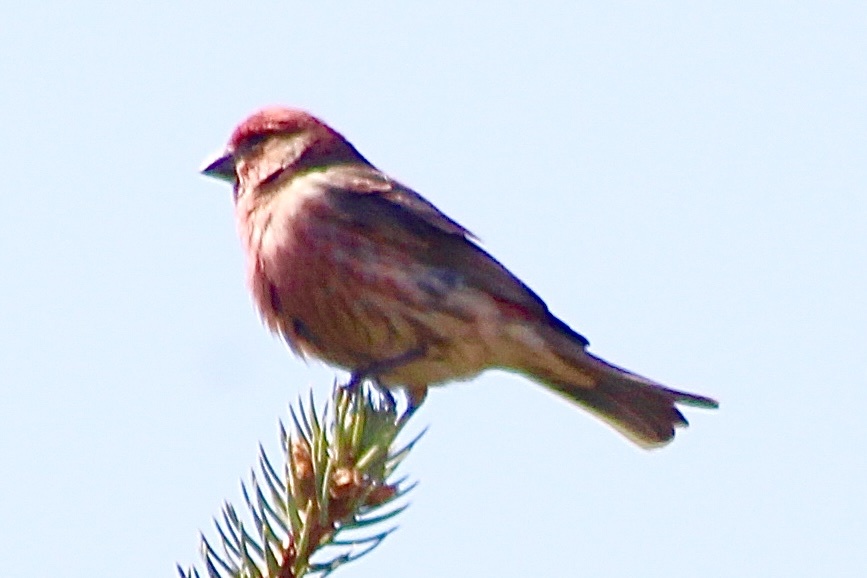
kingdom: Animalia
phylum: Chordata
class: Aves
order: Passeriformes
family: Fringillidae
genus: Haemorhous
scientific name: Haemorhous mexicanus
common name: House finch
